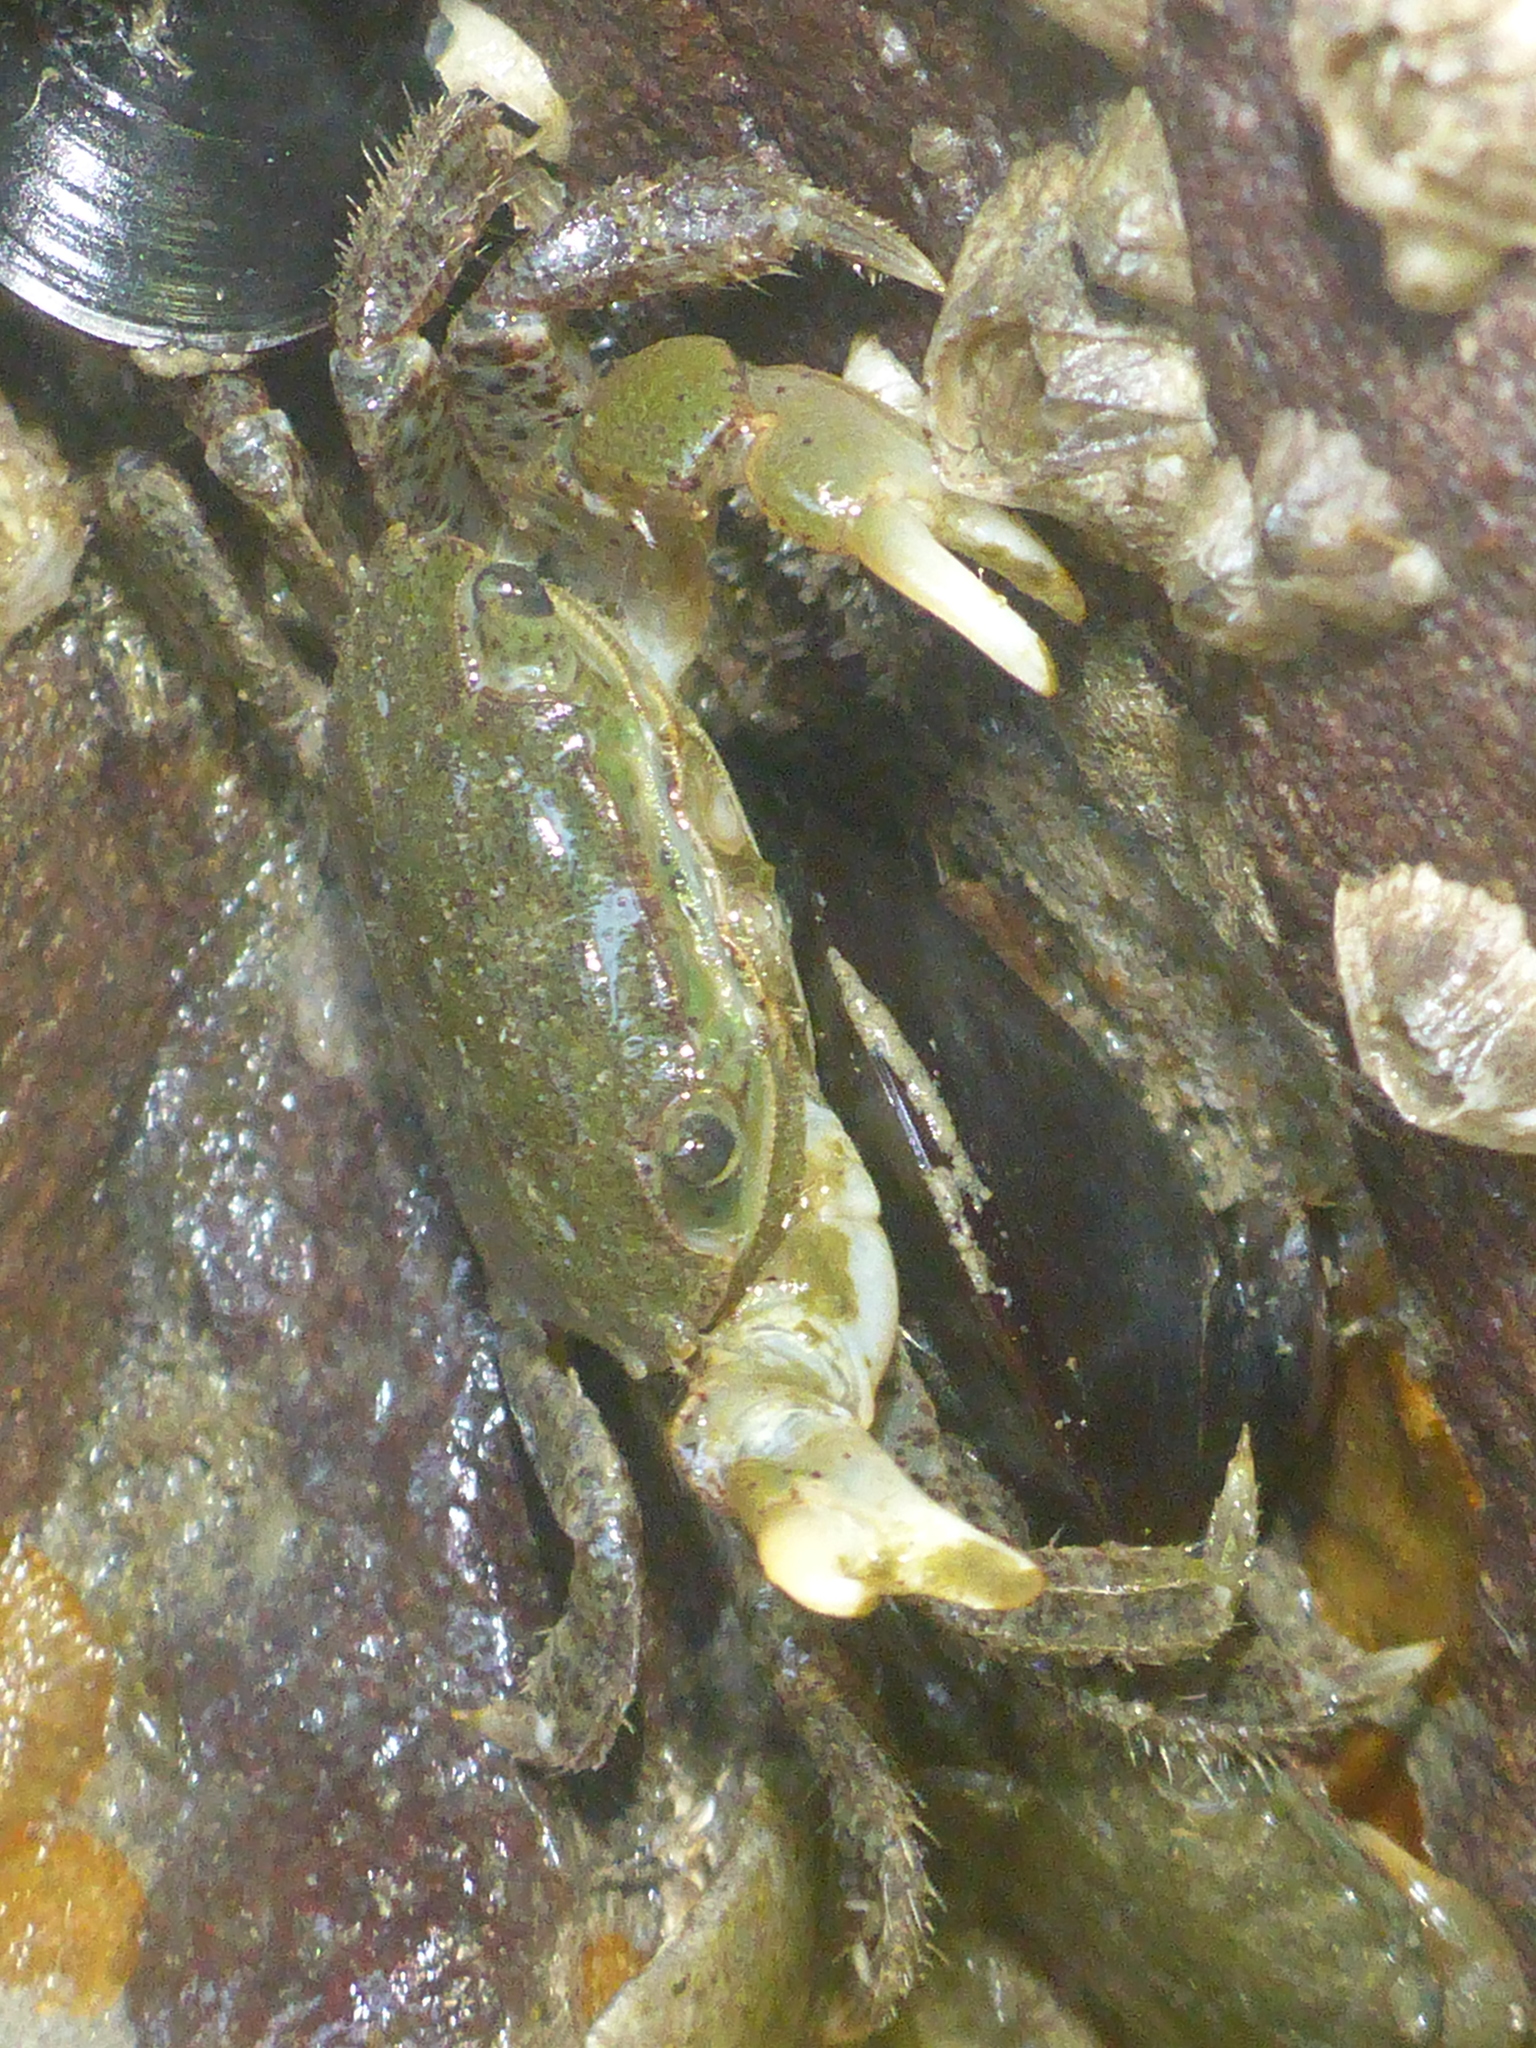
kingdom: Animalia
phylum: Arthropoda
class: Malacostraca
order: Decapoda
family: Varunidae
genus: Hemigrapsus
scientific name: Hemigrapsus oregonensis
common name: Yellow shore crab
